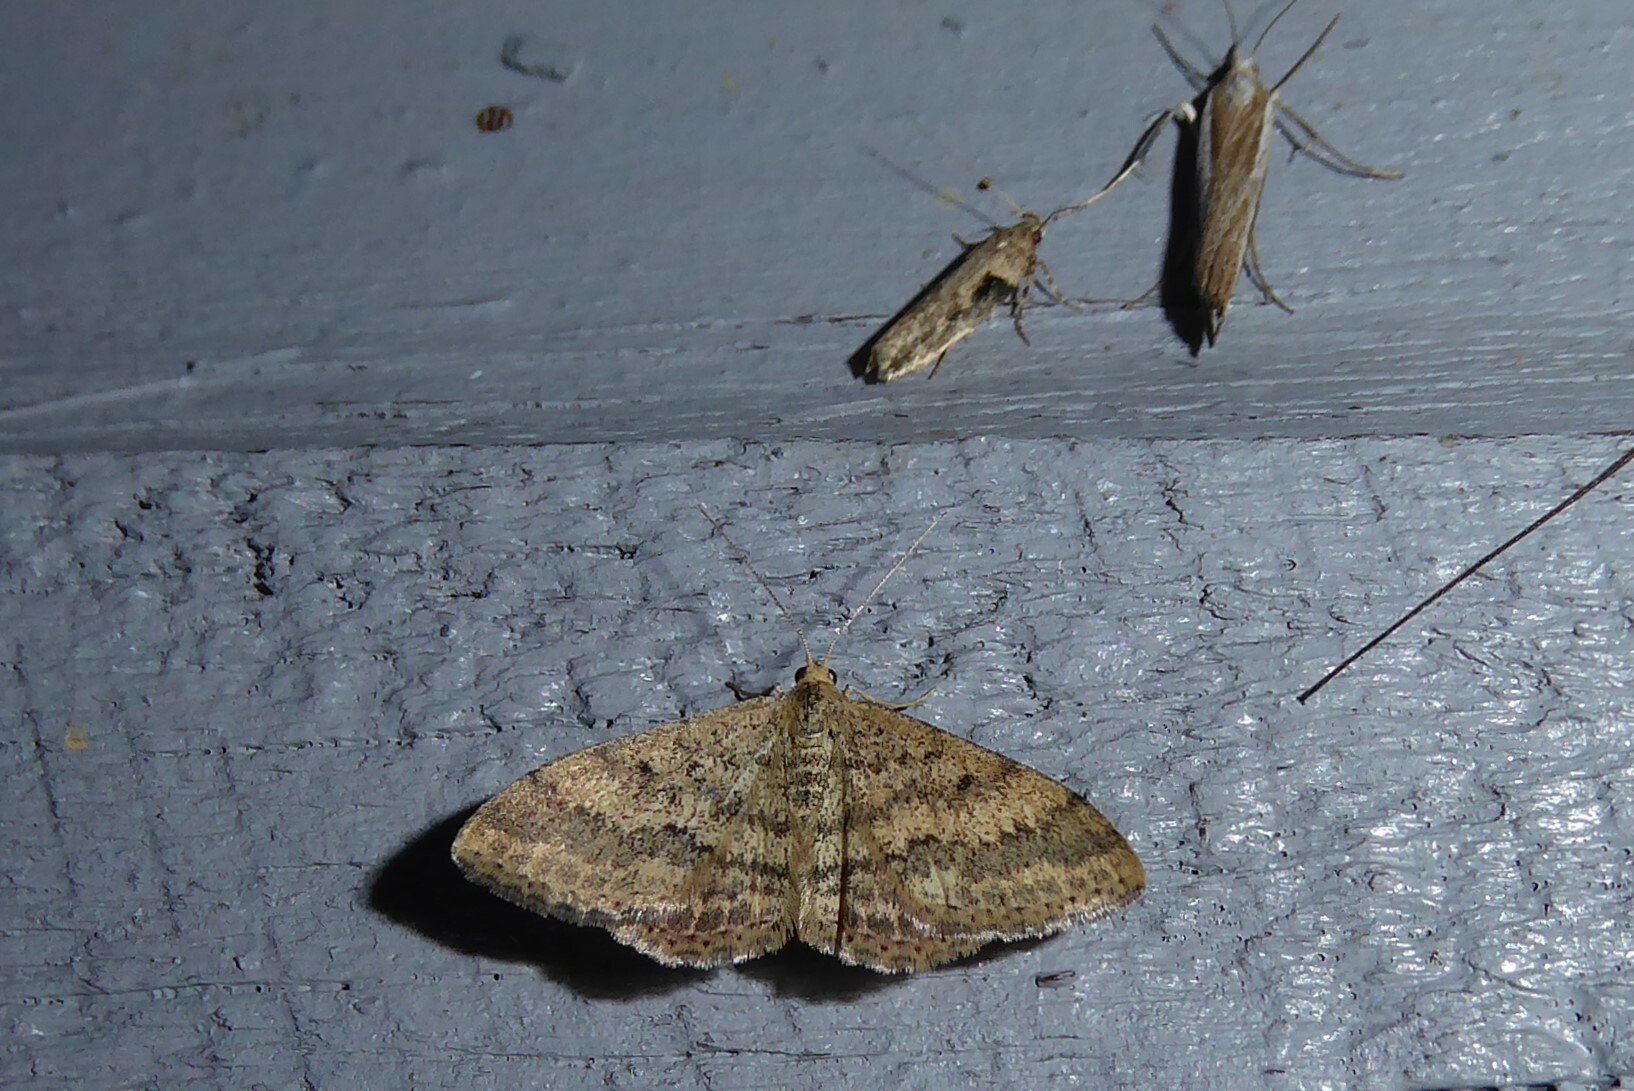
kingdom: Animalia
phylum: Arthropoda
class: Insecta
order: Lepidoptera
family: Geometridae
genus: Scopula
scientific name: Scopula rubraria
